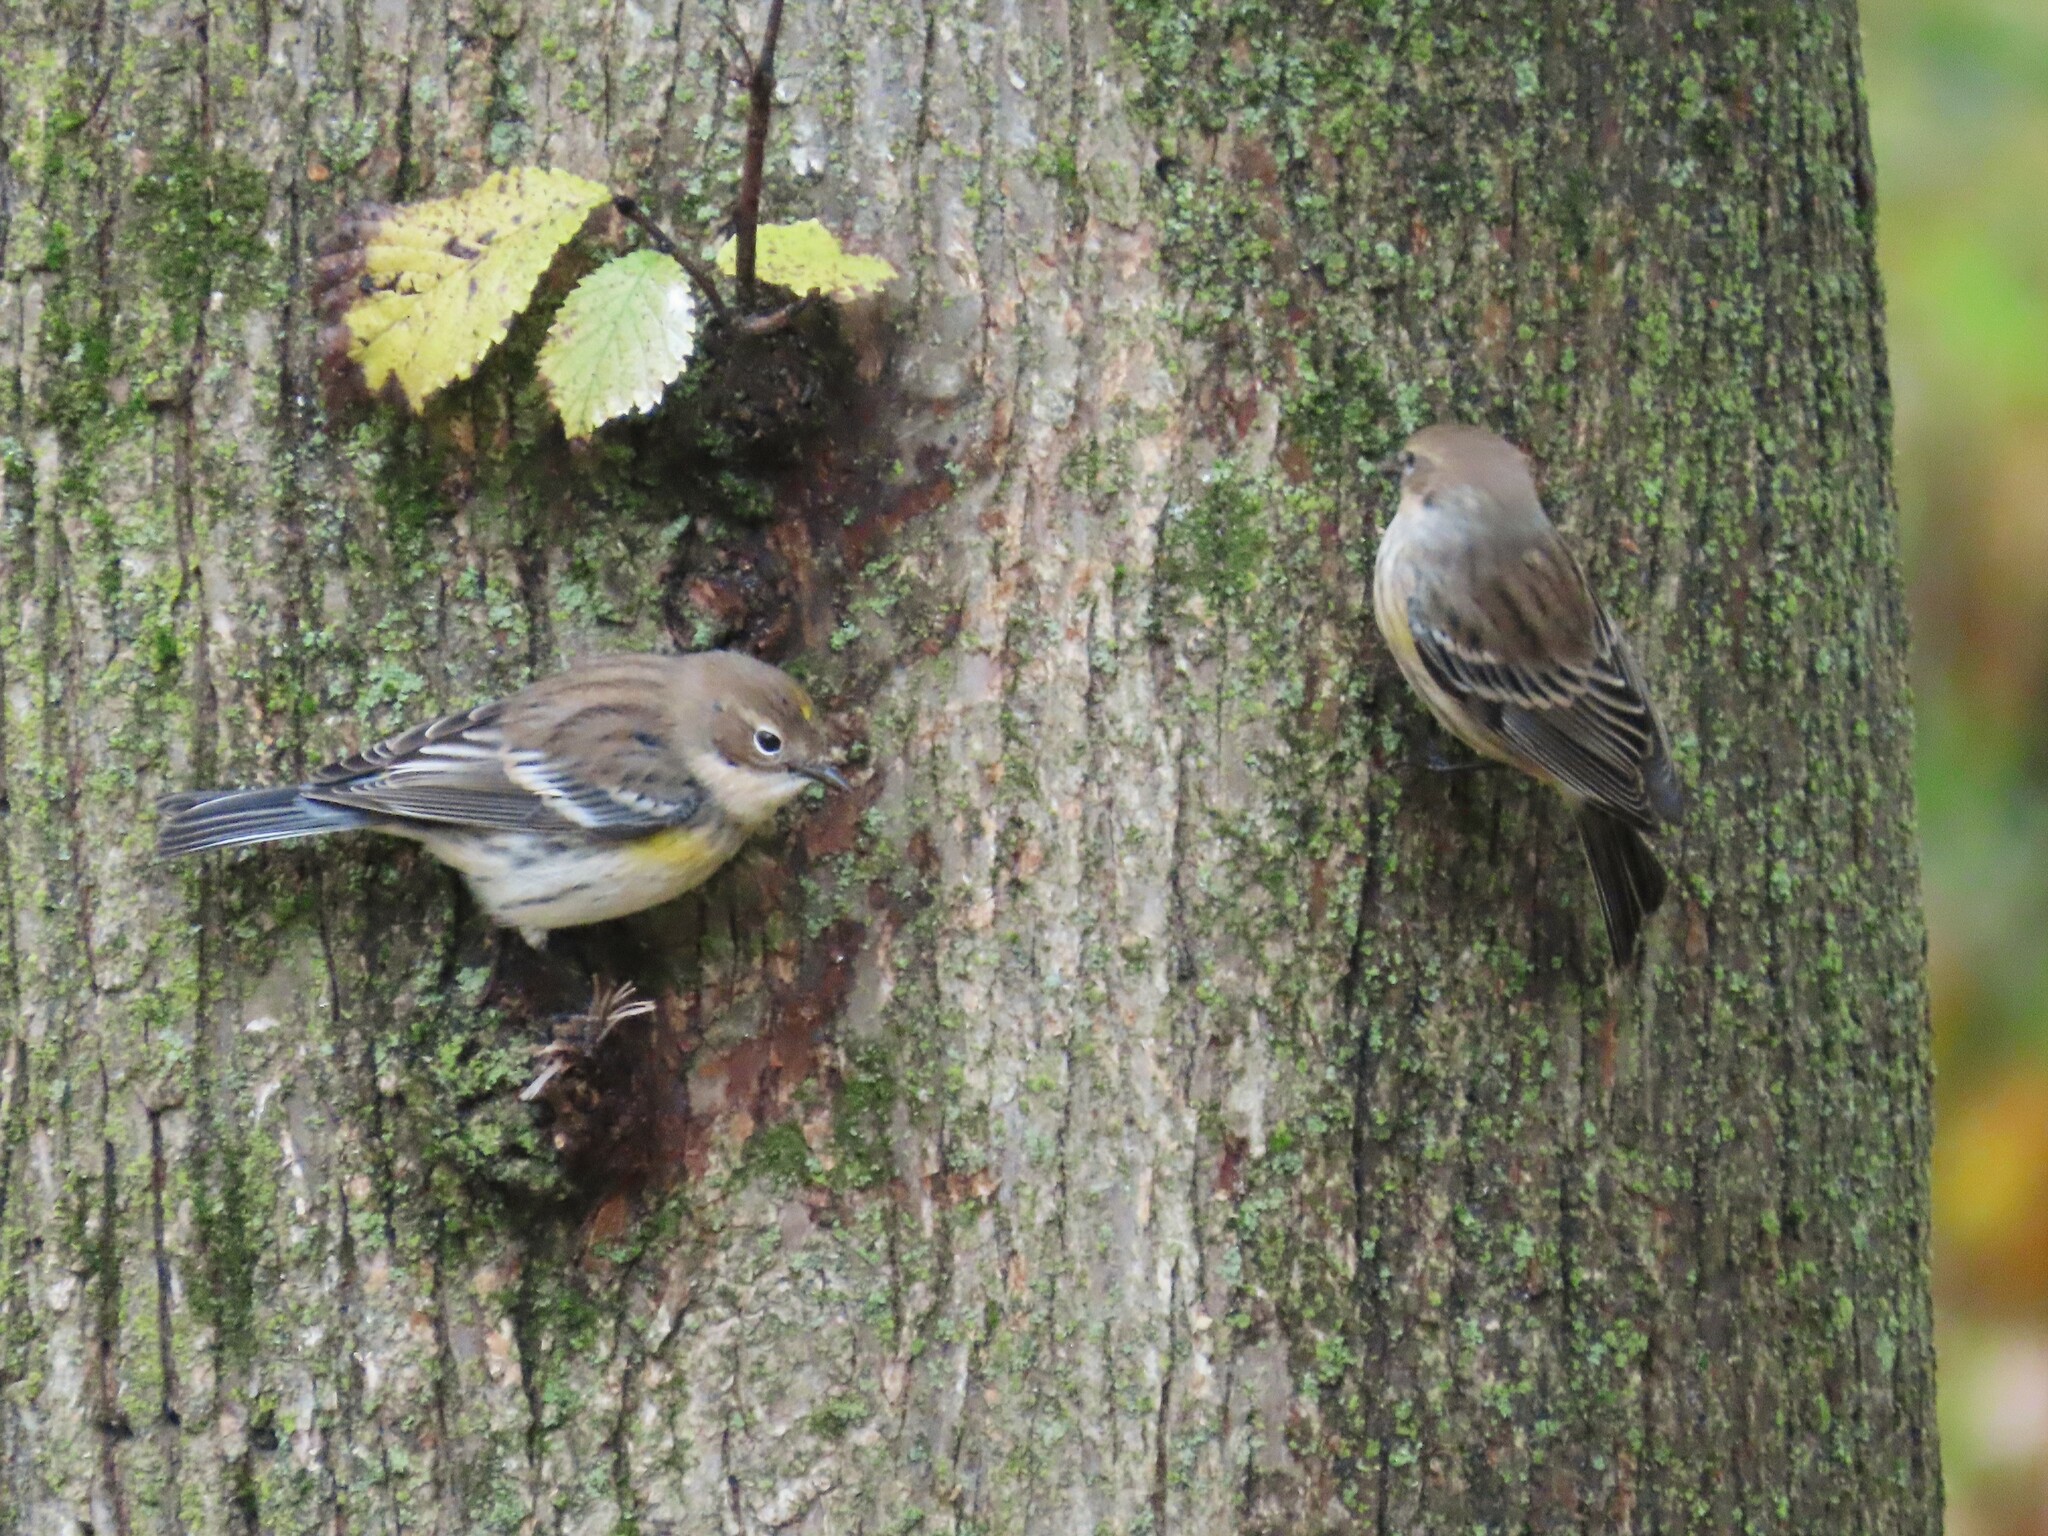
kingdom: Animalia
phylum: Chordata
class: Aves
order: Passeriformes
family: Parulidae
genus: Setophaga
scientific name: Setophaga coronata
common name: Myrtle warbler
